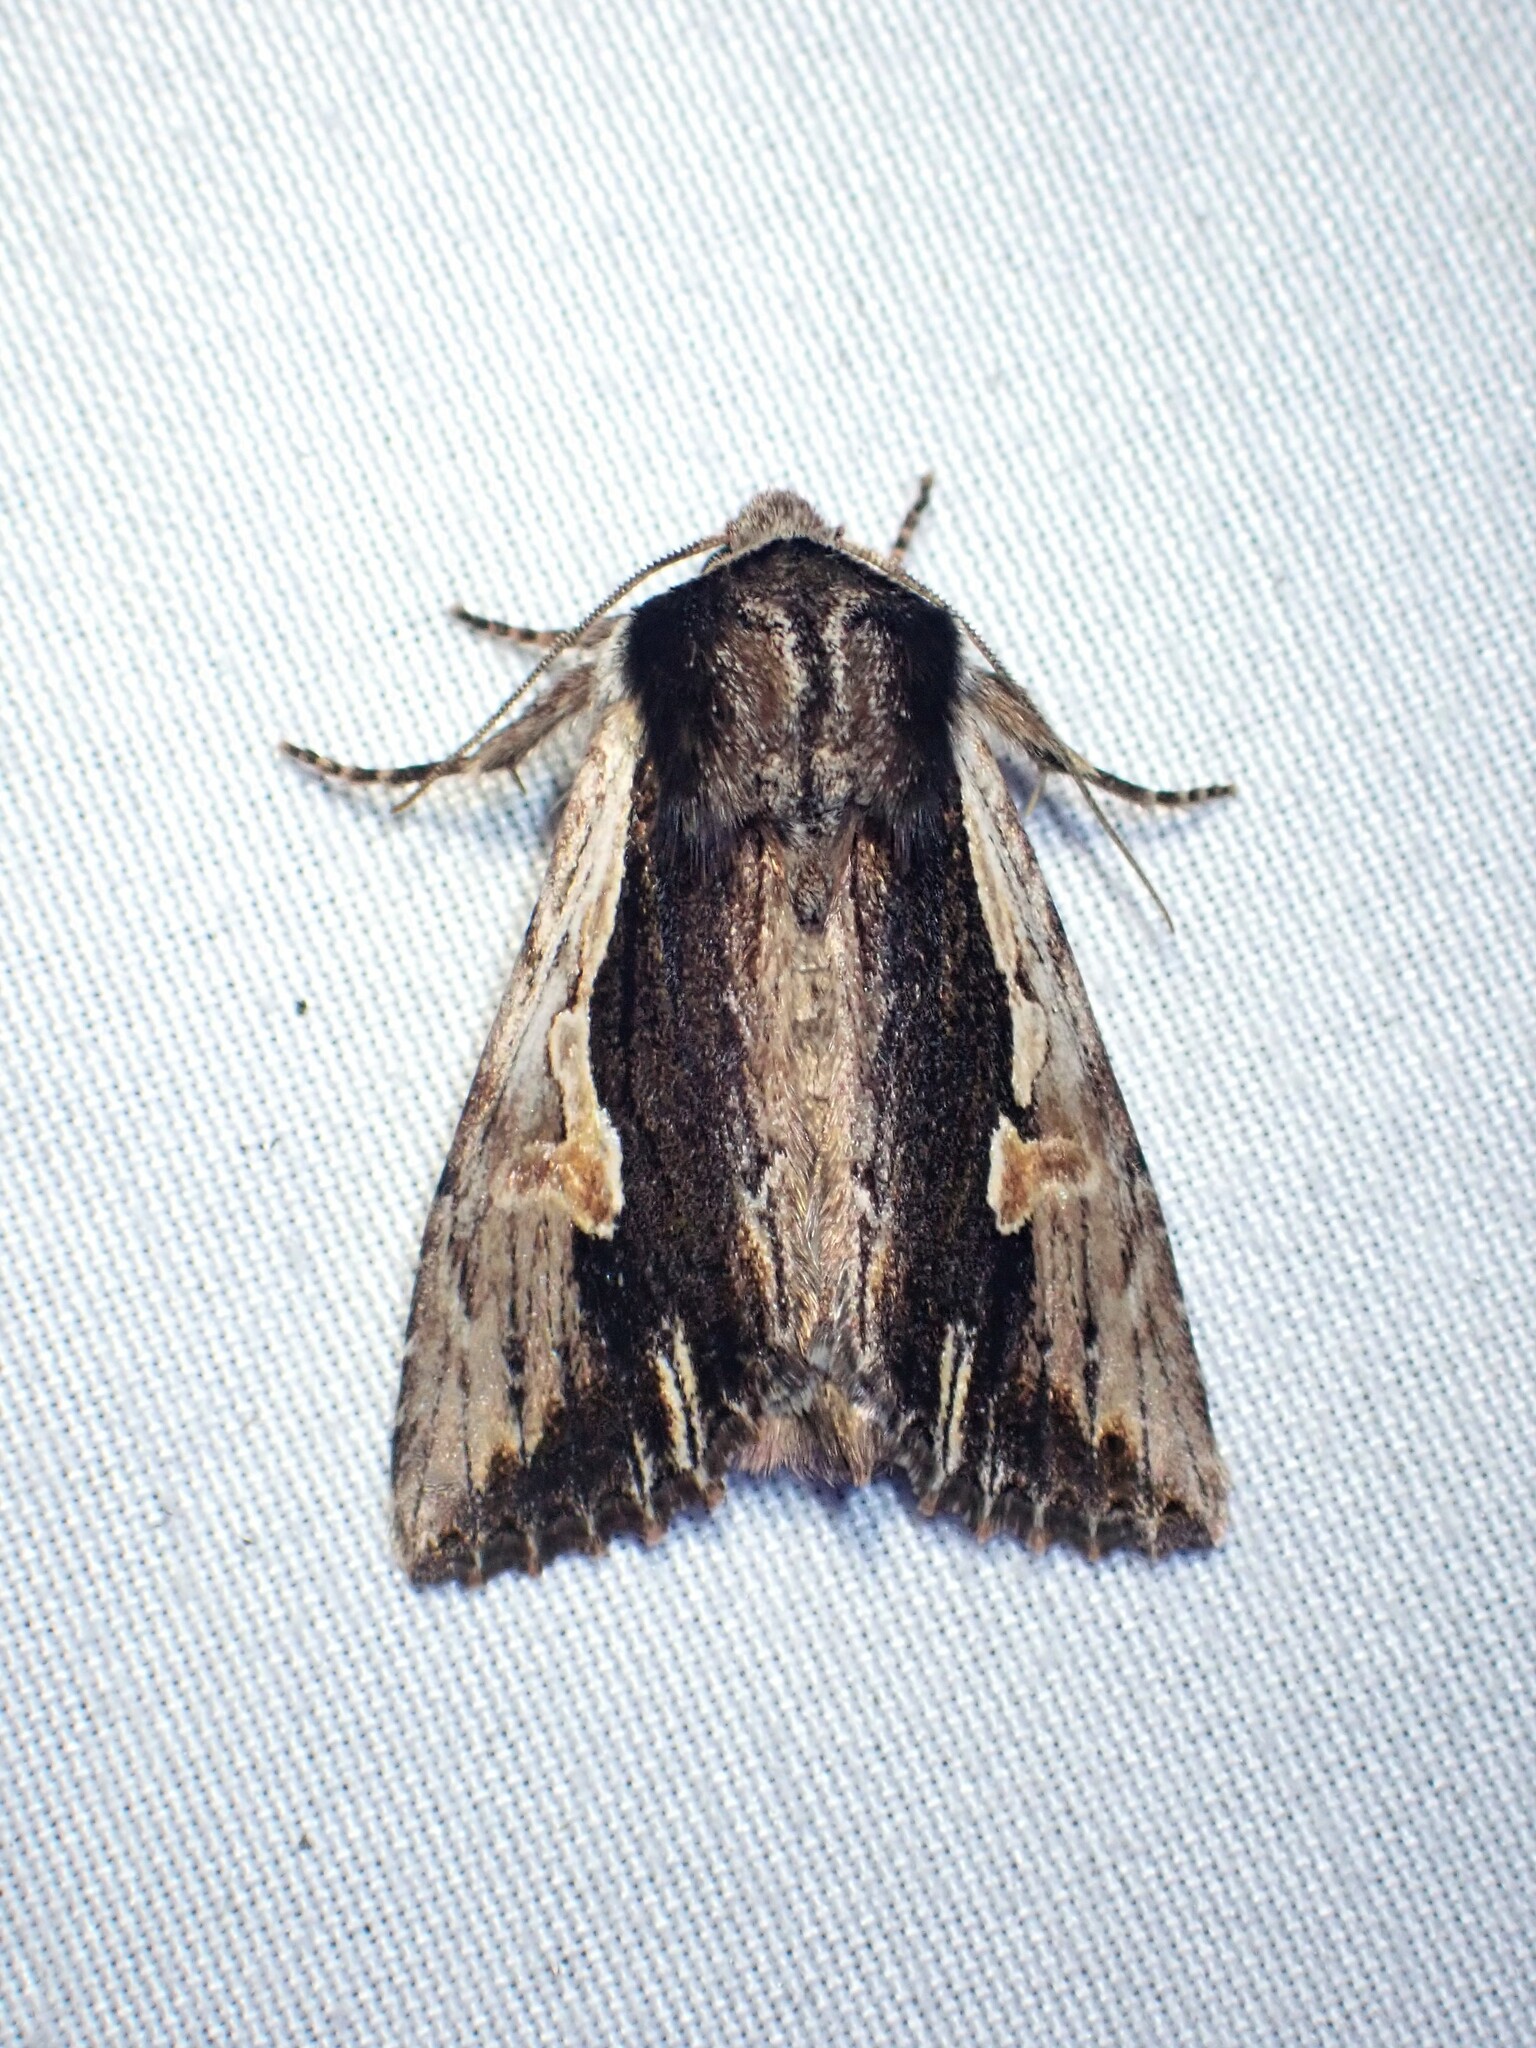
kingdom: Animalia
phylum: Arthropoda
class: Insecta
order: Lepidoptera
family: Noctuidae
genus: Achatia
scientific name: Achatia evicta
